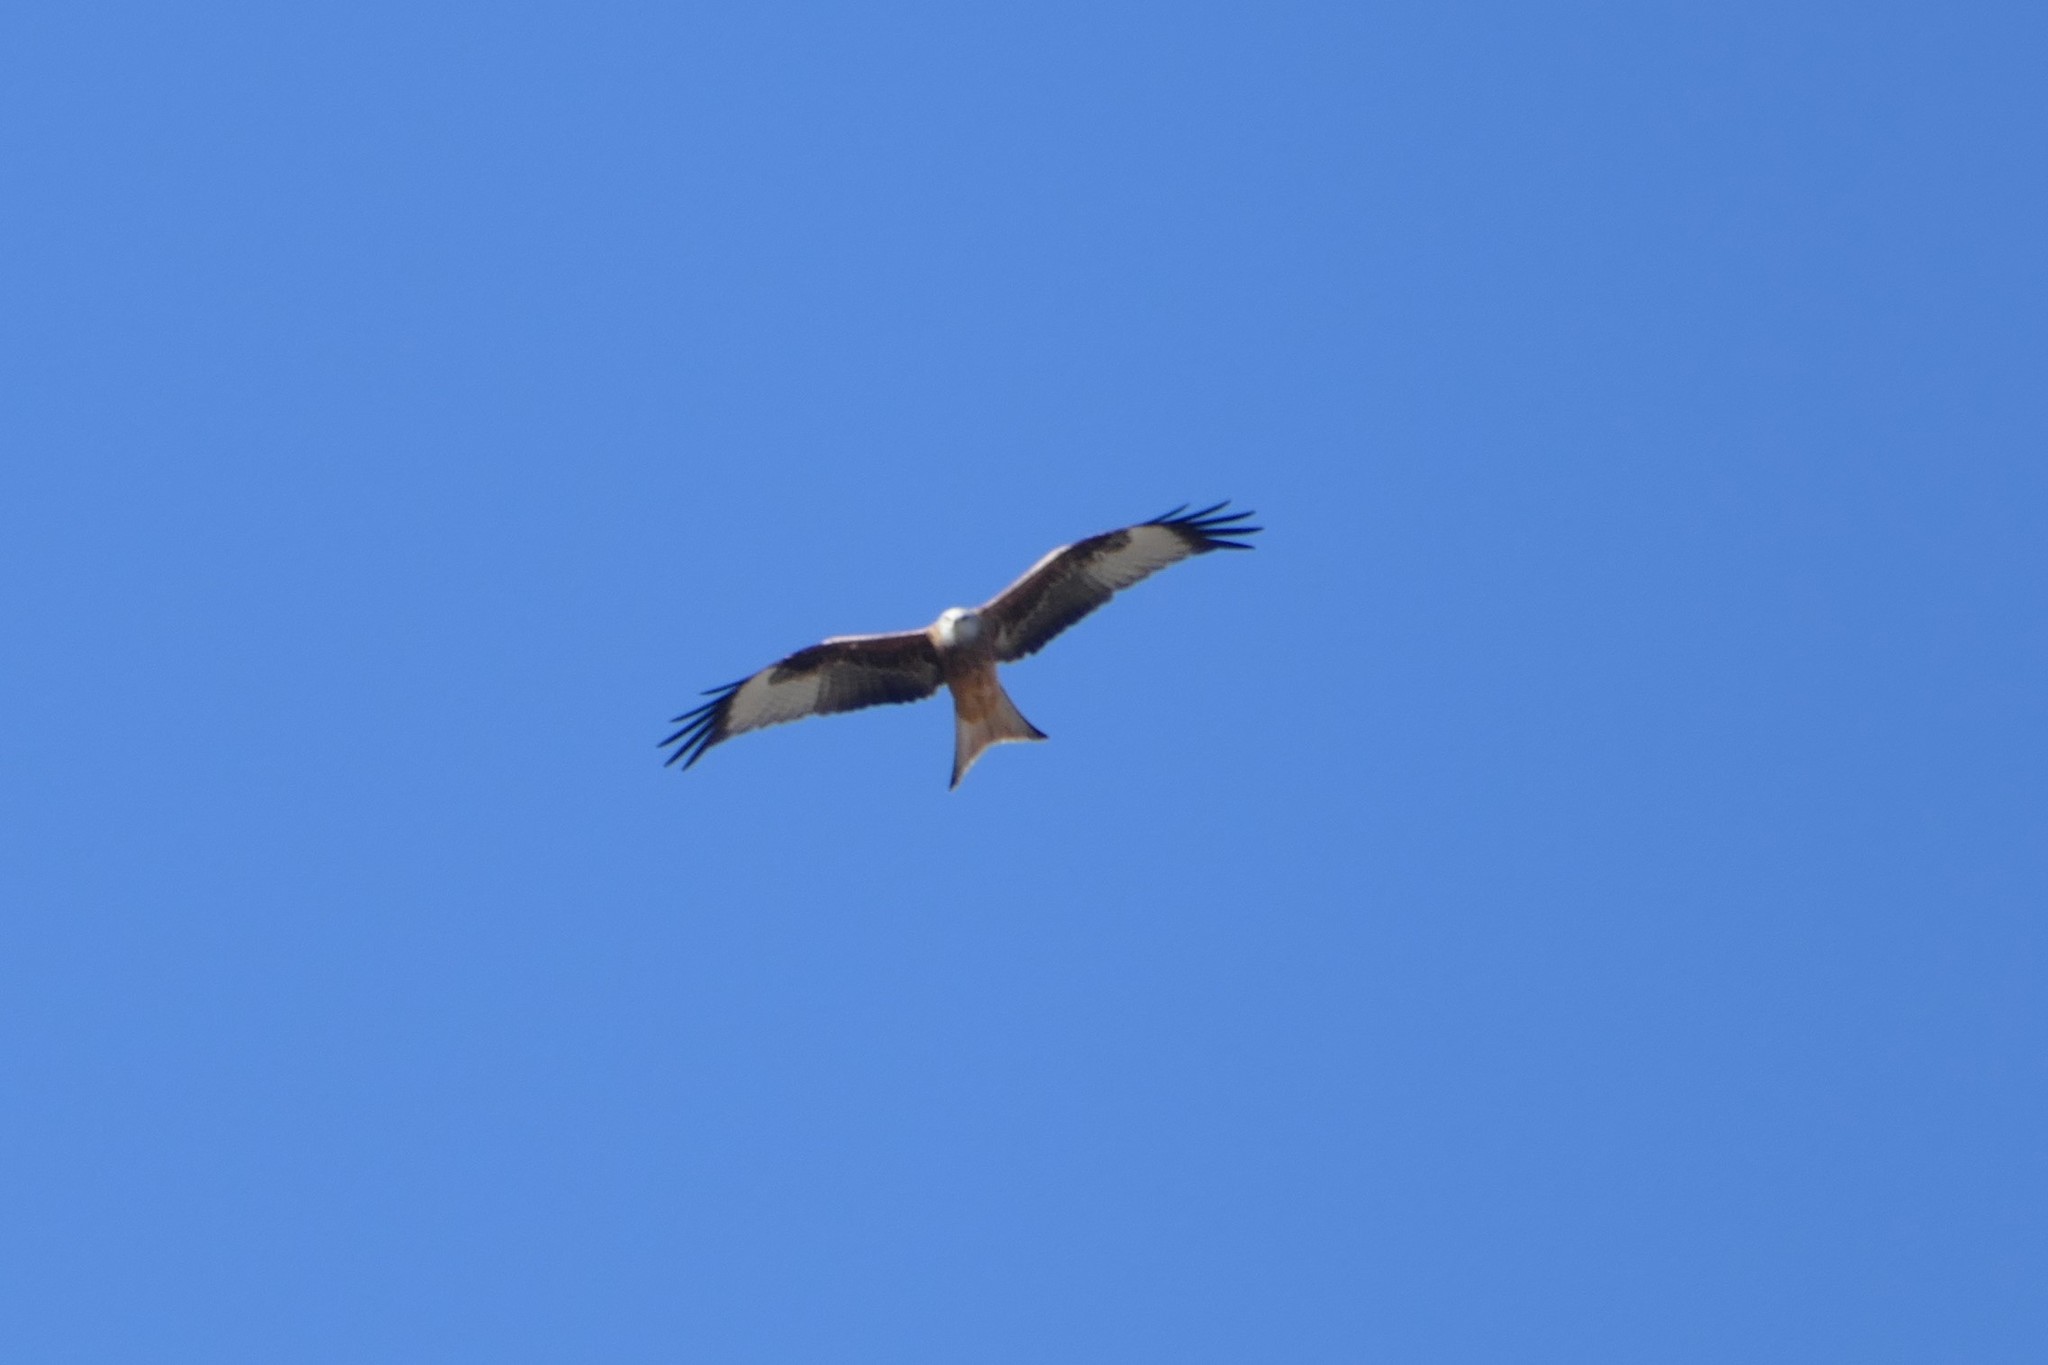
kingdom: Animalia
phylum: Chordata
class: Aves
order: Accipitriformes
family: Accipitridae
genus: Milvus
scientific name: Milvus milvus
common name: Red kite
